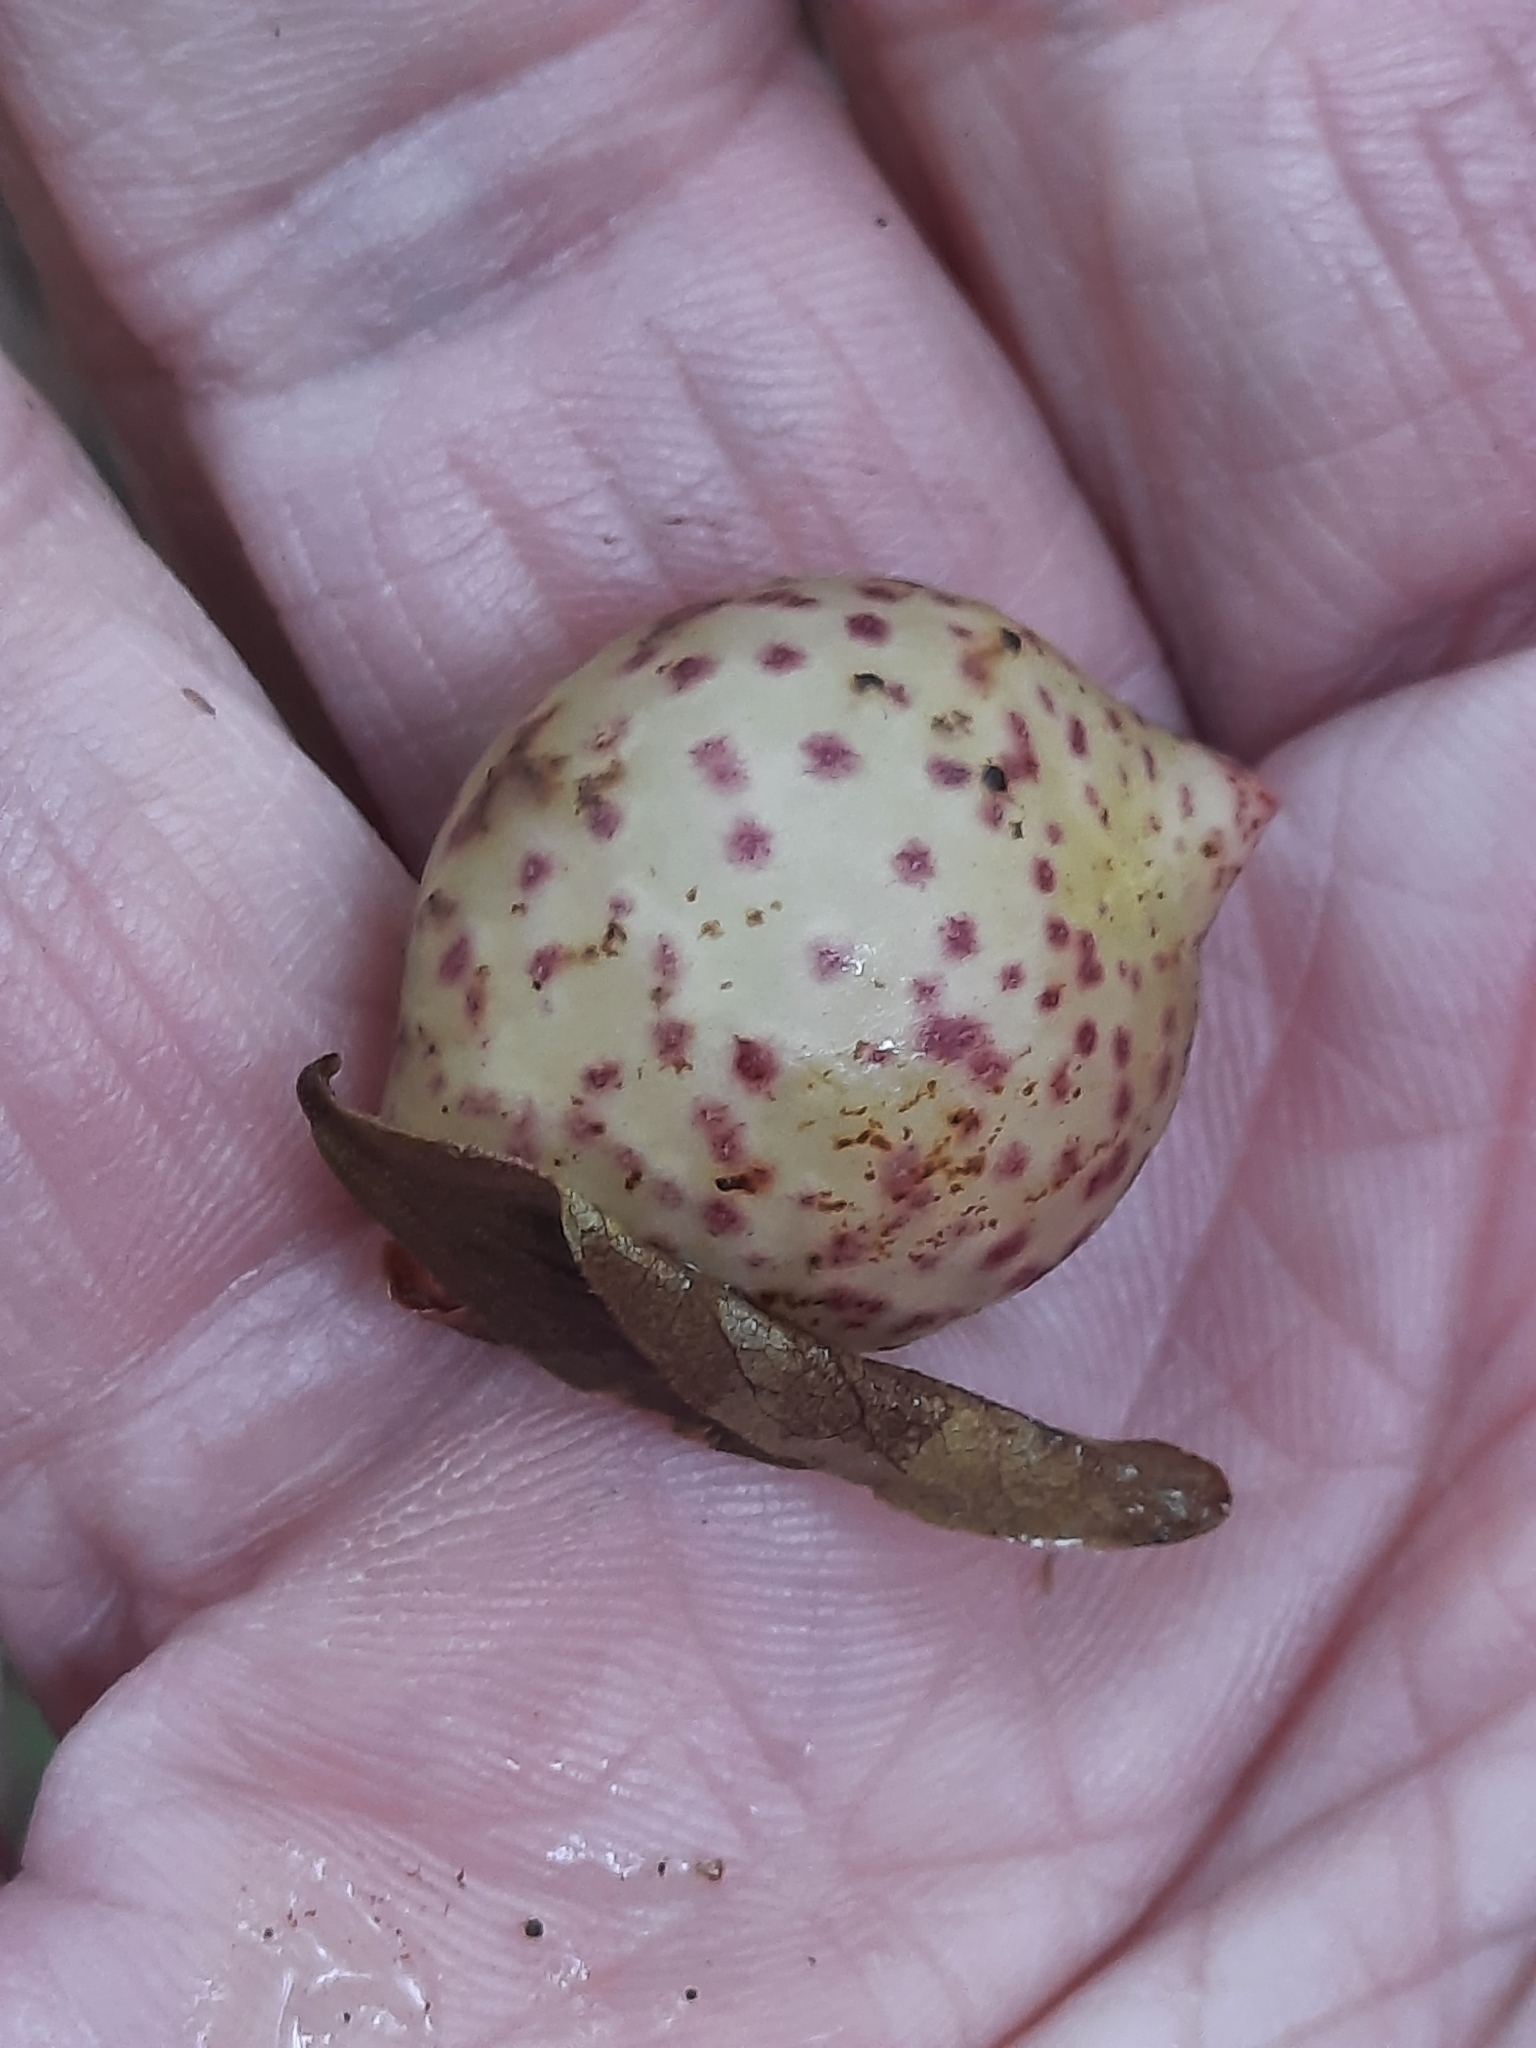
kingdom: Animalia
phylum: Arthropoda
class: Insecta
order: Hymenoptera
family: Cynipidae
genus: Amphibolips
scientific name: Amphibolips
